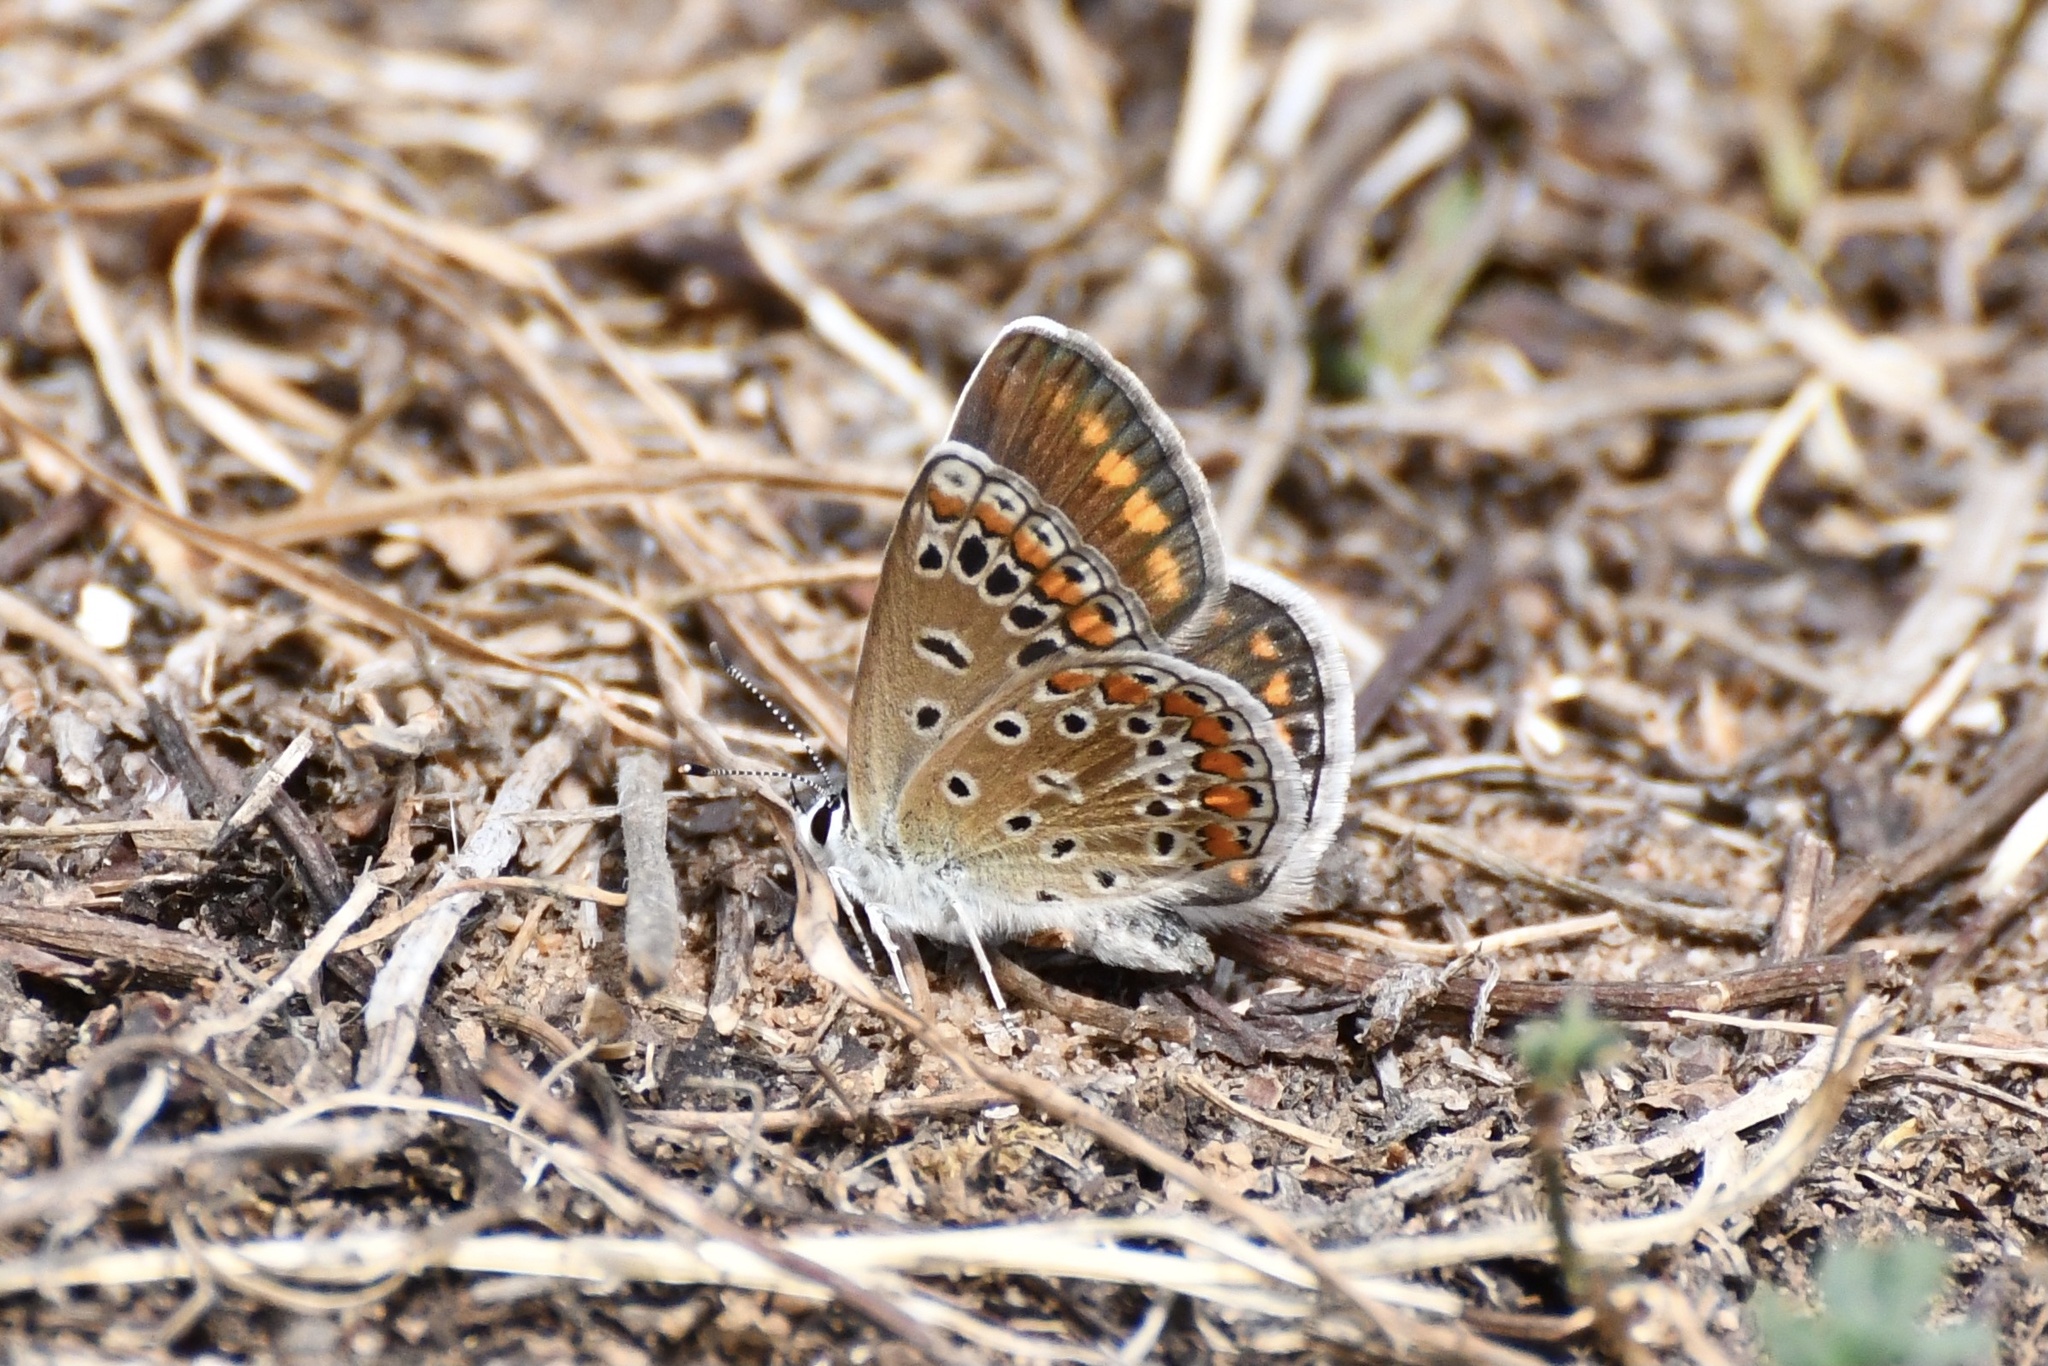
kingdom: Animalia
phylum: Arthropoda
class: Insecta
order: Lepidoptera
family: Lycaenidae
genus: Polyommatus
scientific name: Polyommatus icarus
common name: Common blue
